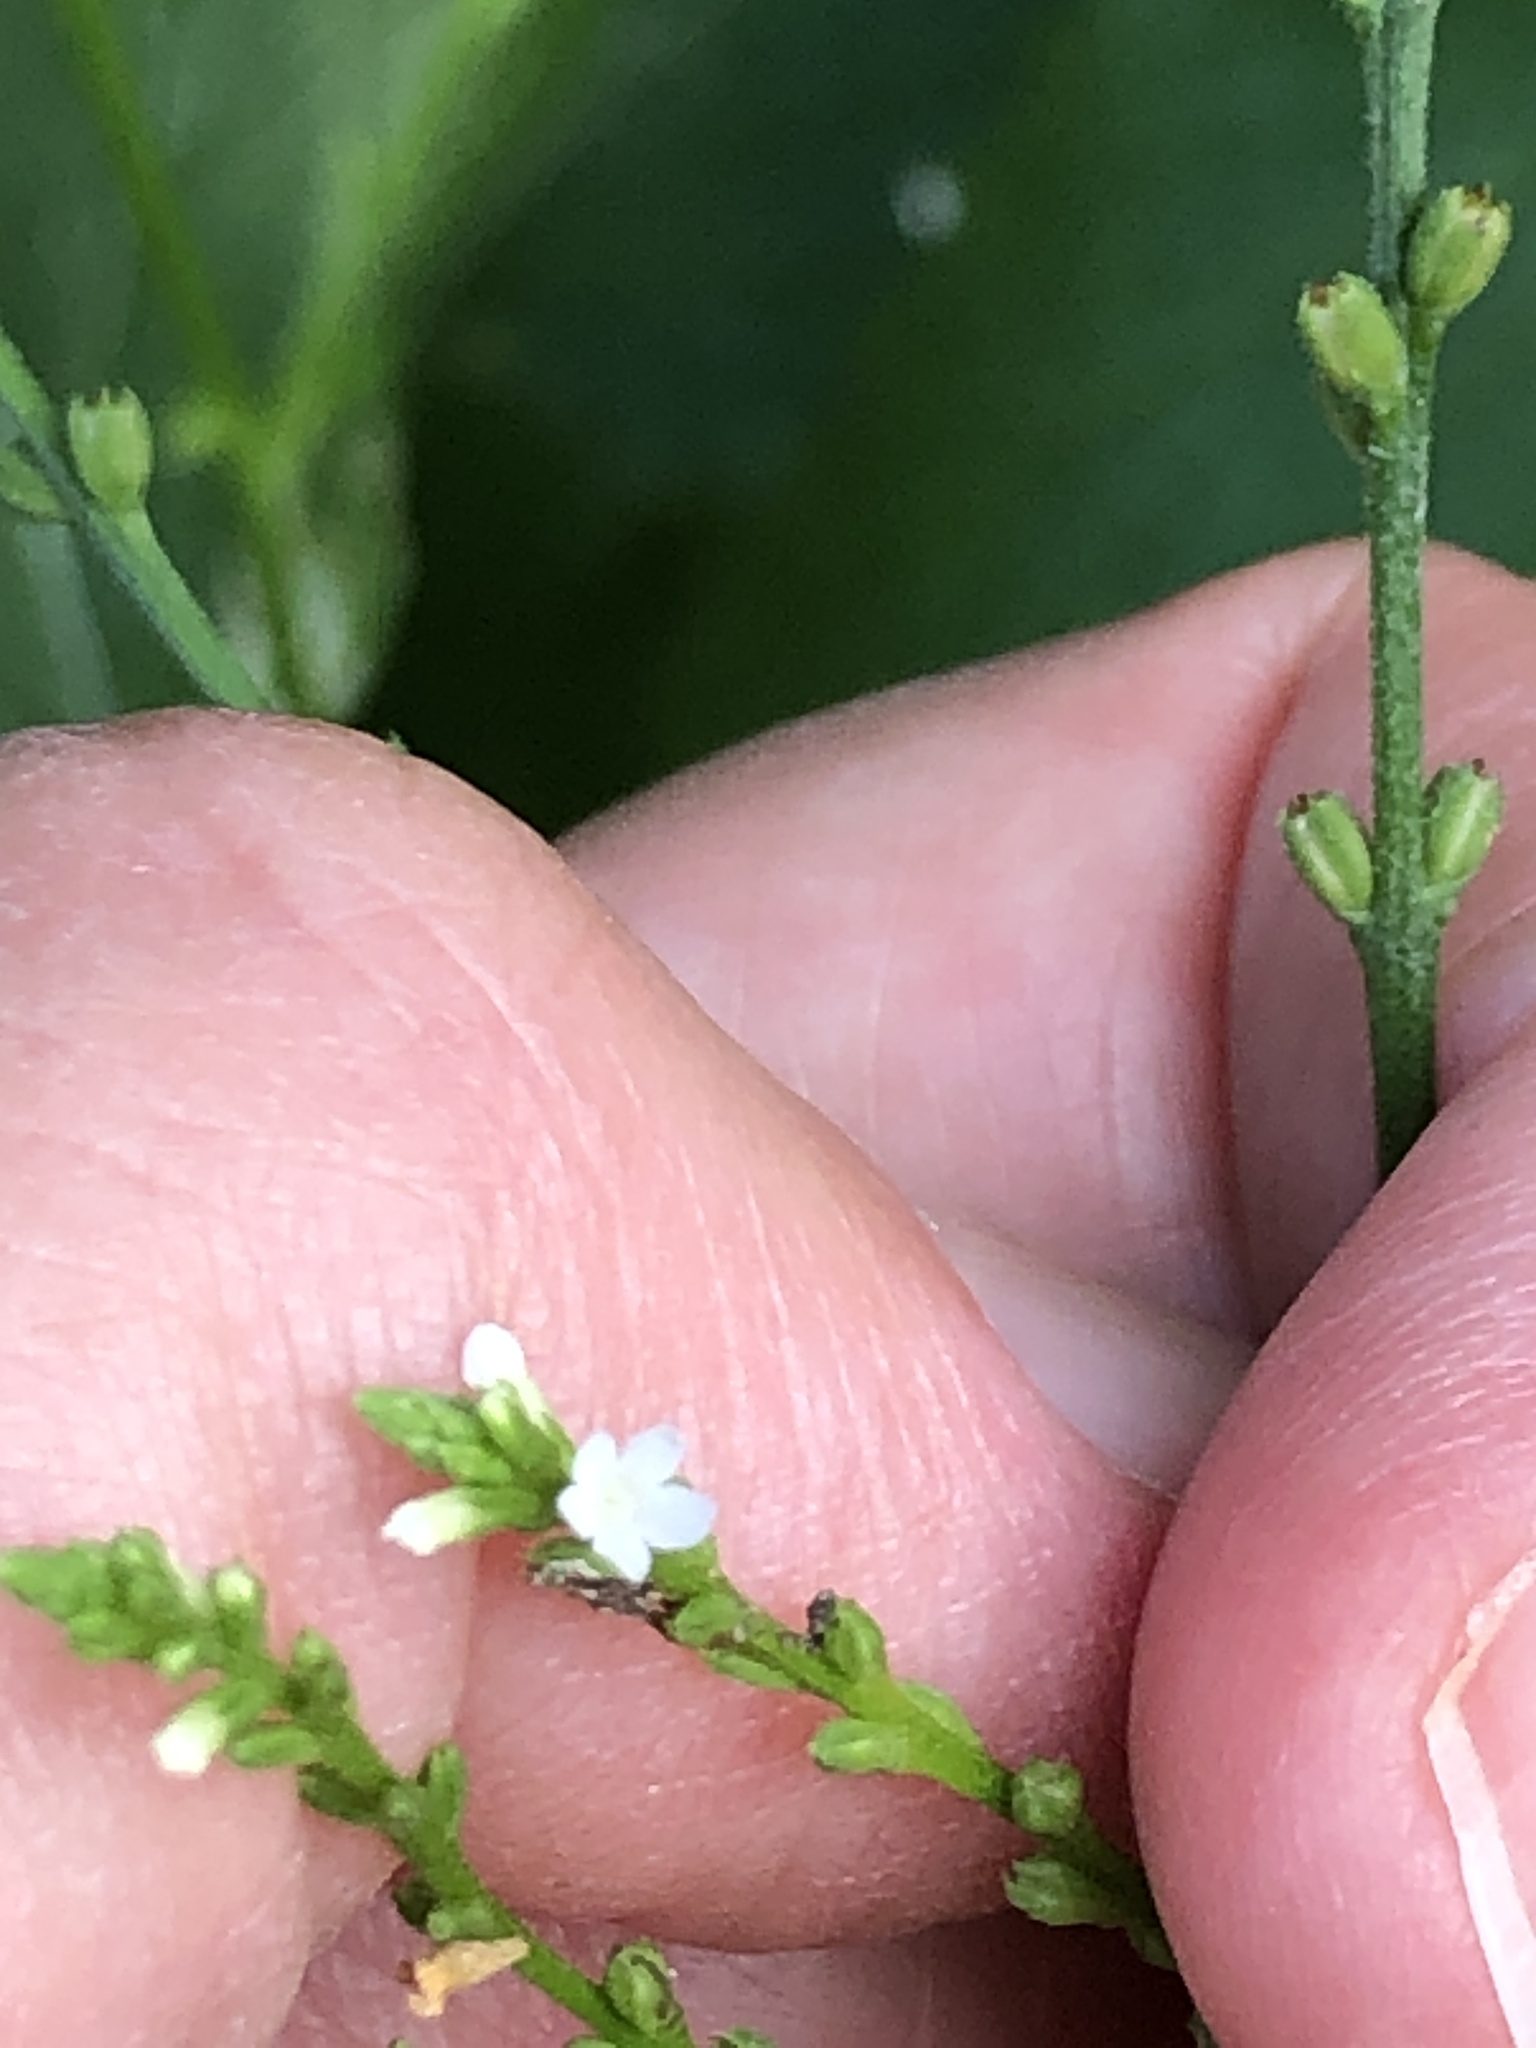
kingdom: Plantae
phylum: Tracheophyta
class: Magnoliopsida
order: Lamiales
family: Verbenaceae
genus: Verbena
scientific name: Verbena urticifolia
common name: Nettle-leaved vervain
